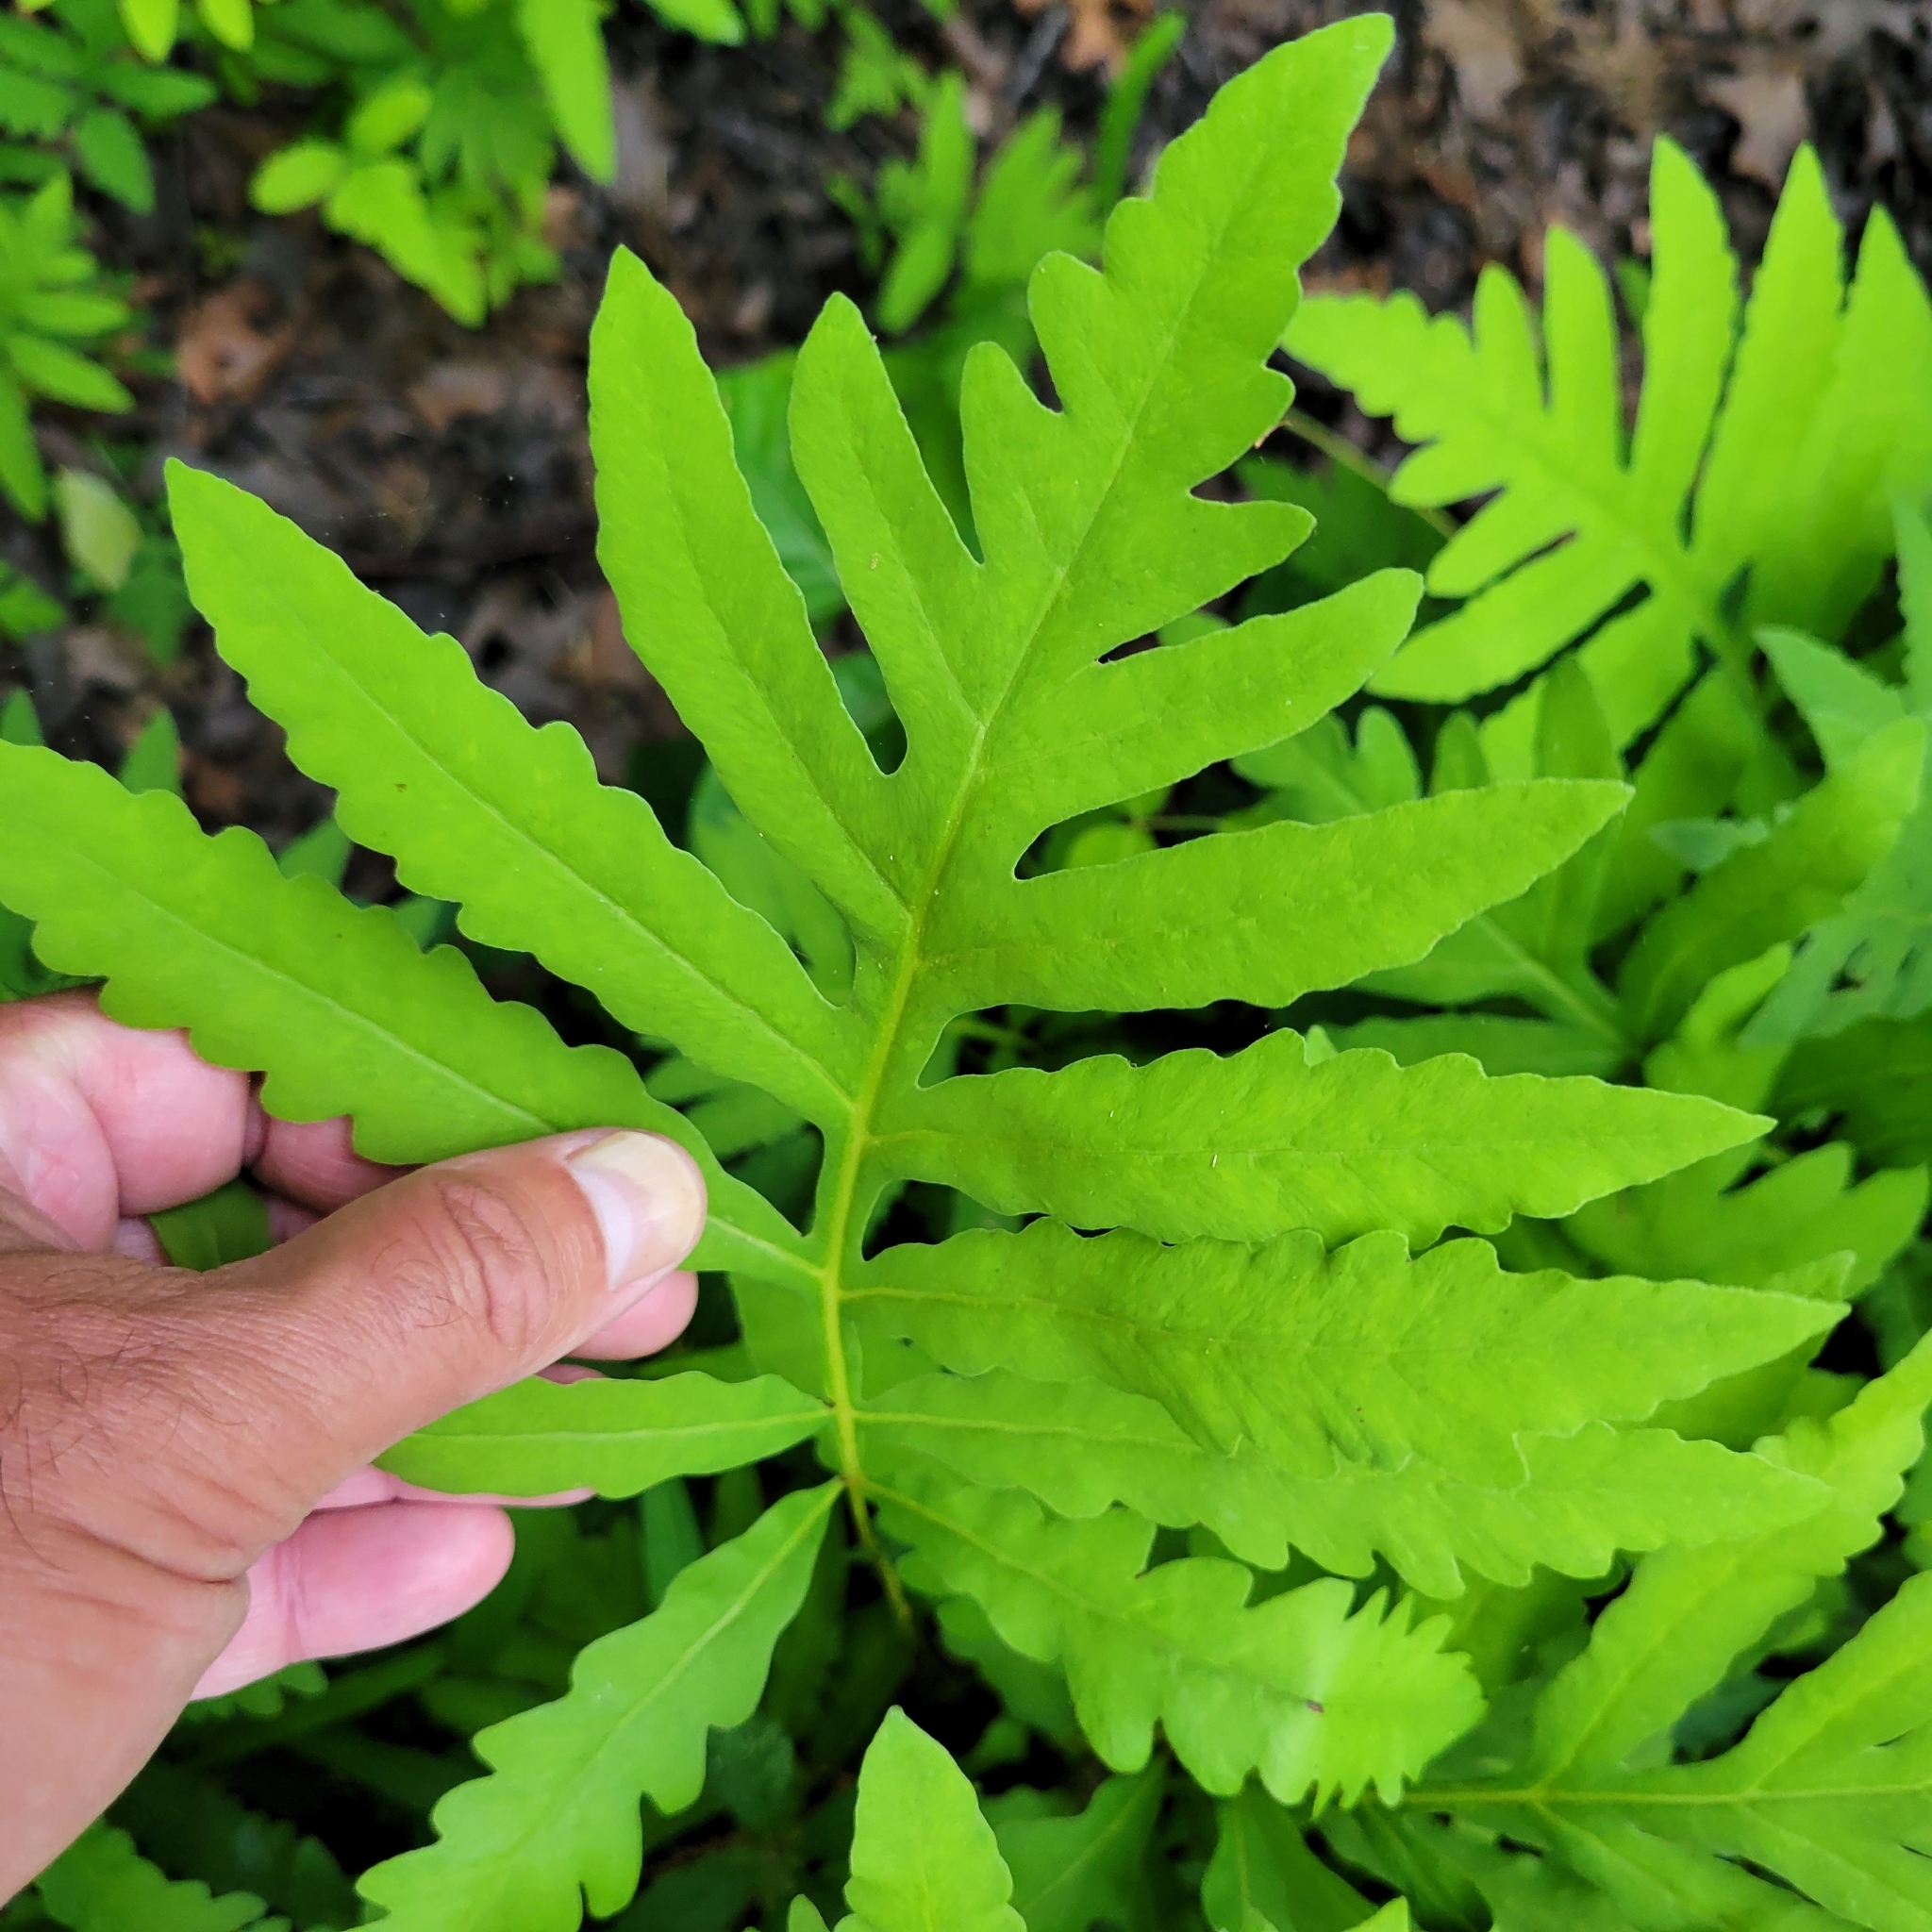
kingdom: Plantae
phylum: Tracheophyta
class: Polypodiopsida
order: Polypodiales
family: Onocleaceae
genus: Onoclea
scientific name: Onoclea sensibilis
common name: Sensitive fern
